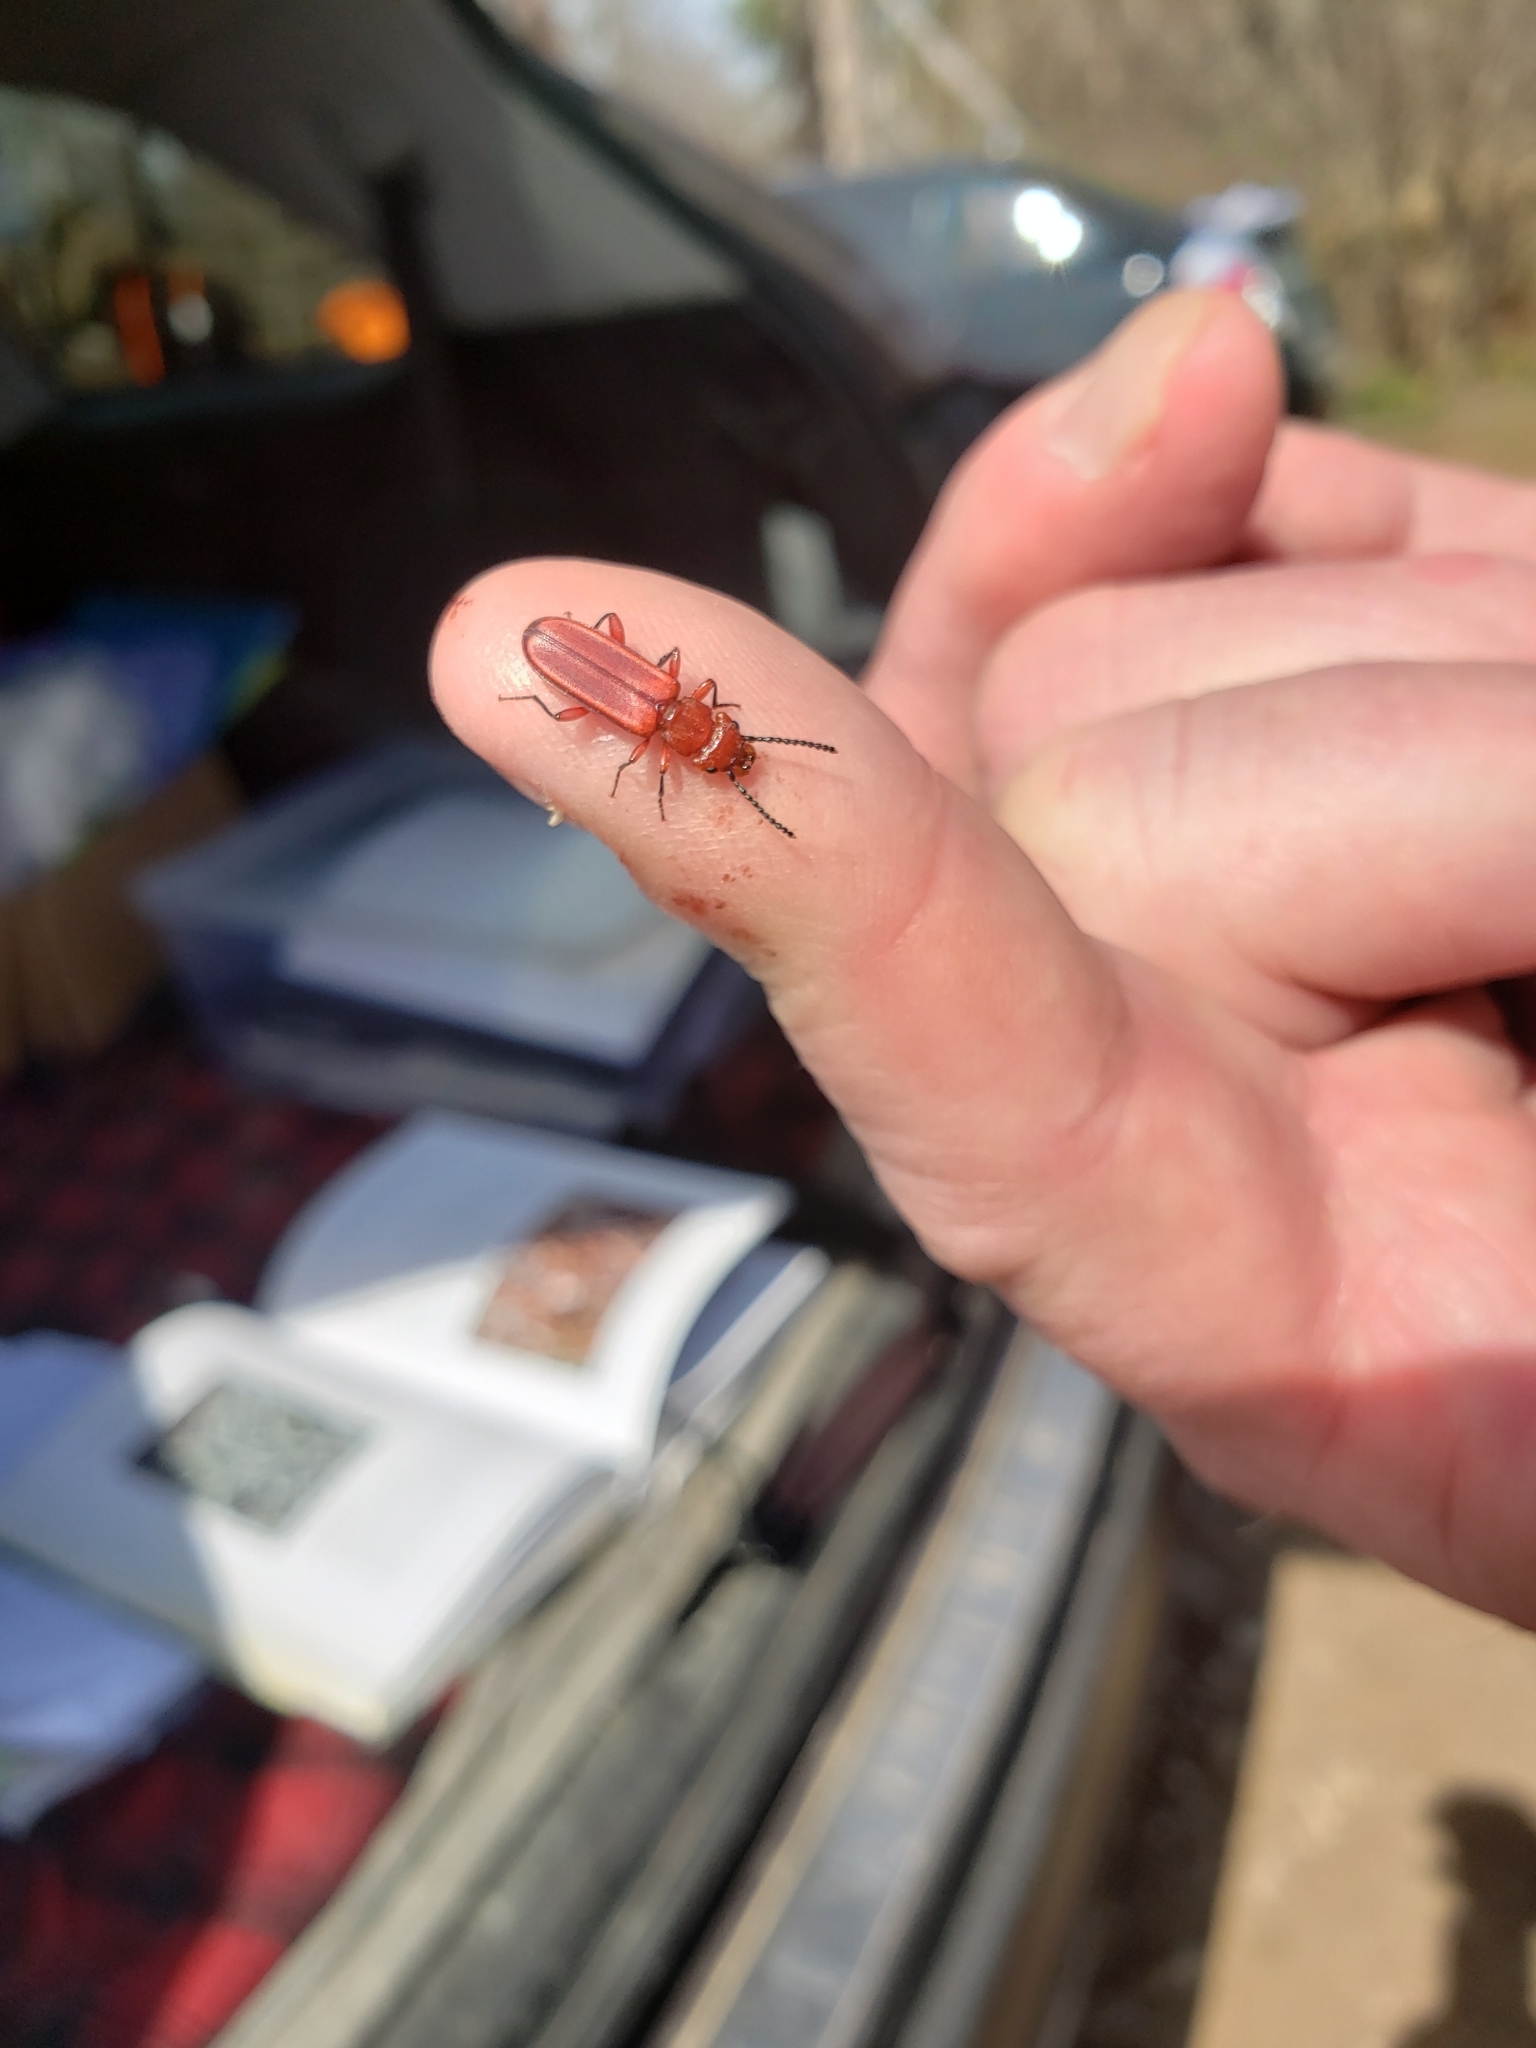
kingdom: Animalia
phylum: Arthropoda
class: Insecta
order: Coleoptera
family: Cucujidae
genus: Cucujus
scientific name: Cucujus clavipes
